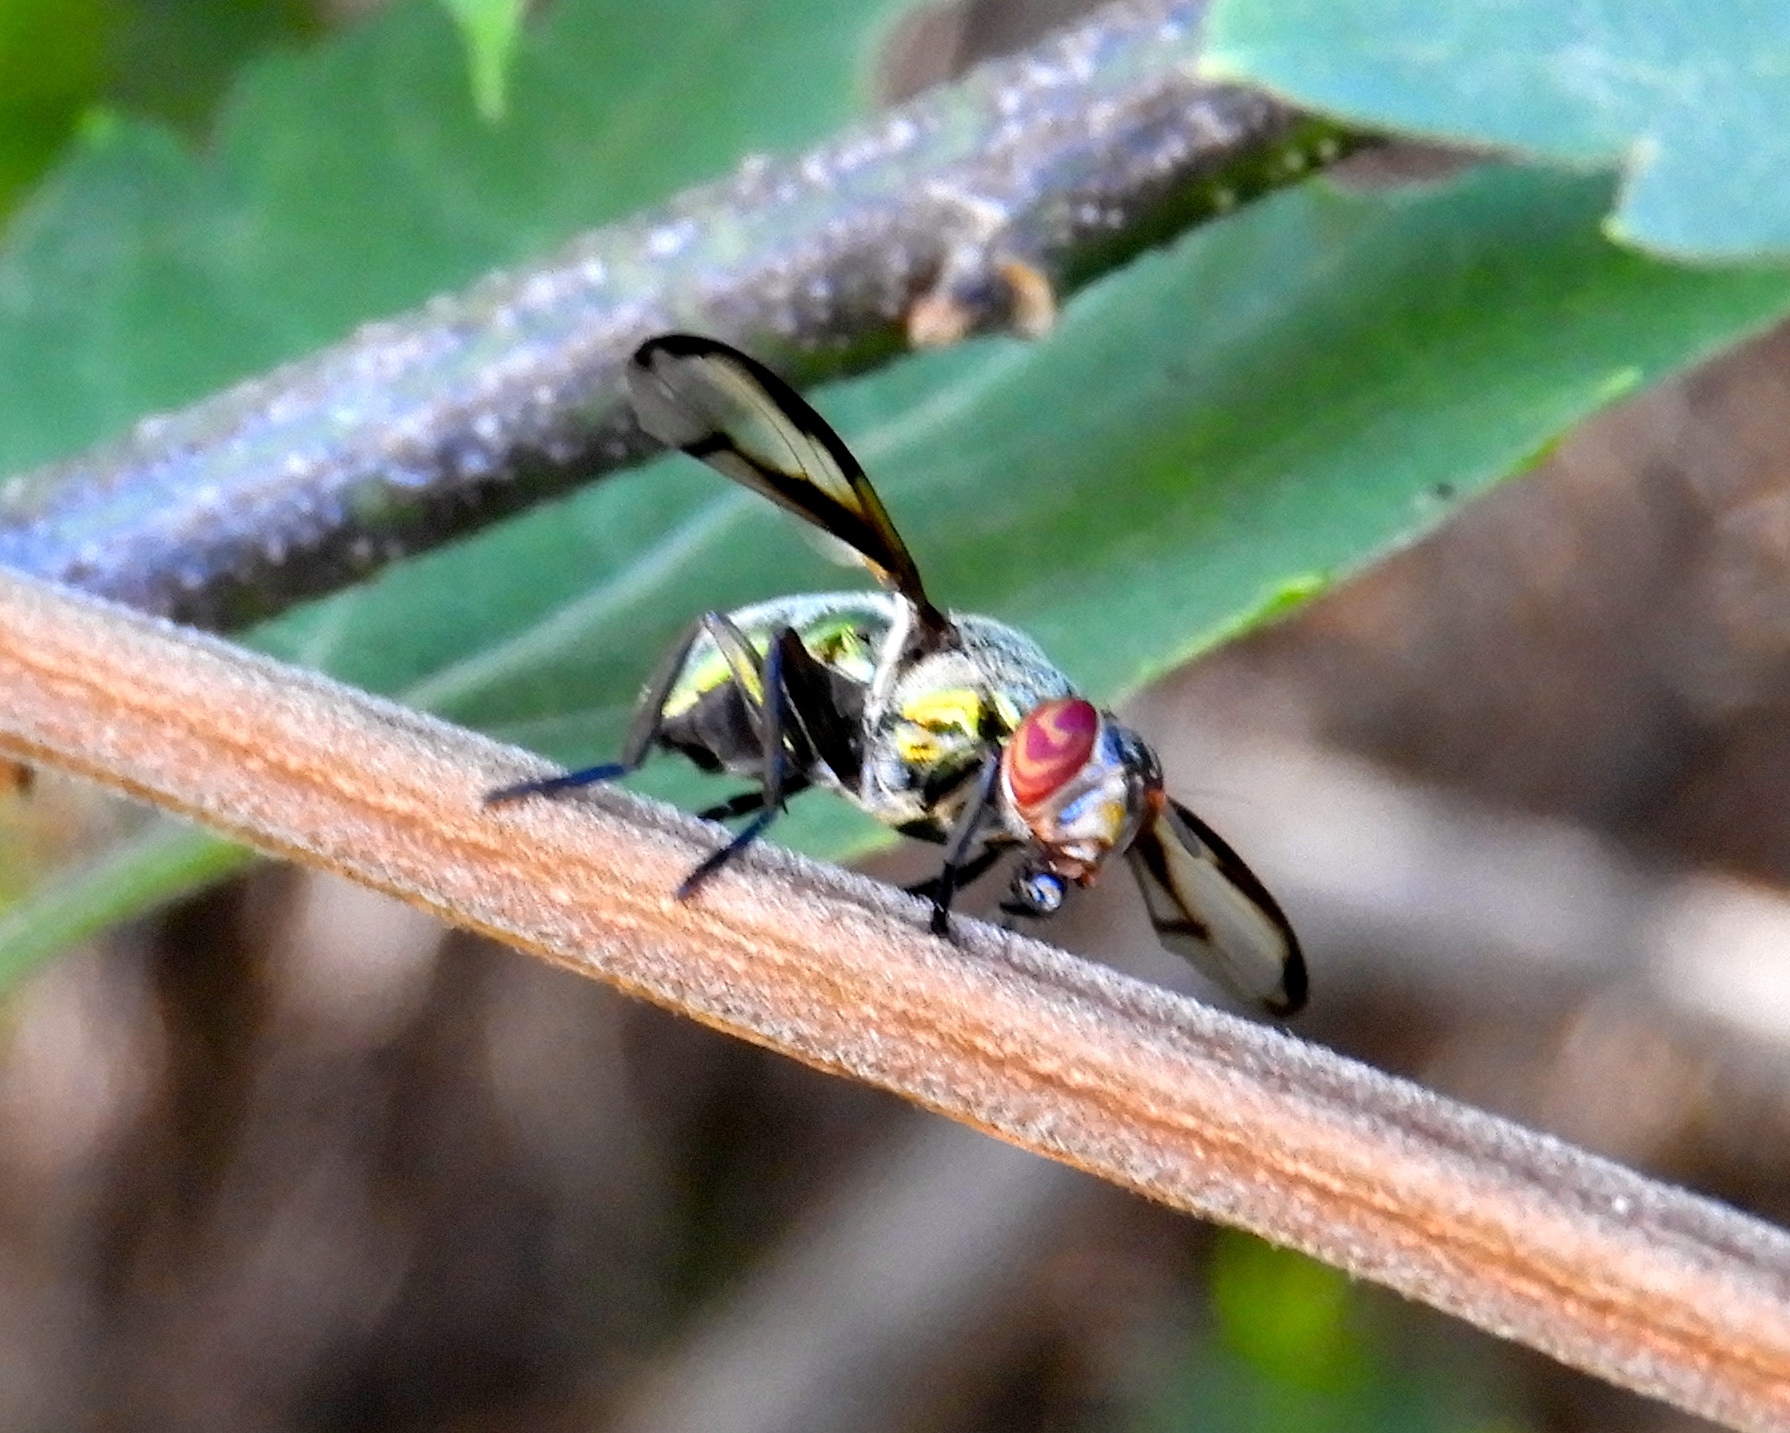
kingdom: Animalia
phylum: Arthropoda
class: Insecta
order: Diptera
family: Platystomatidae
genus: Senopterina
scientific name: Senopterina
